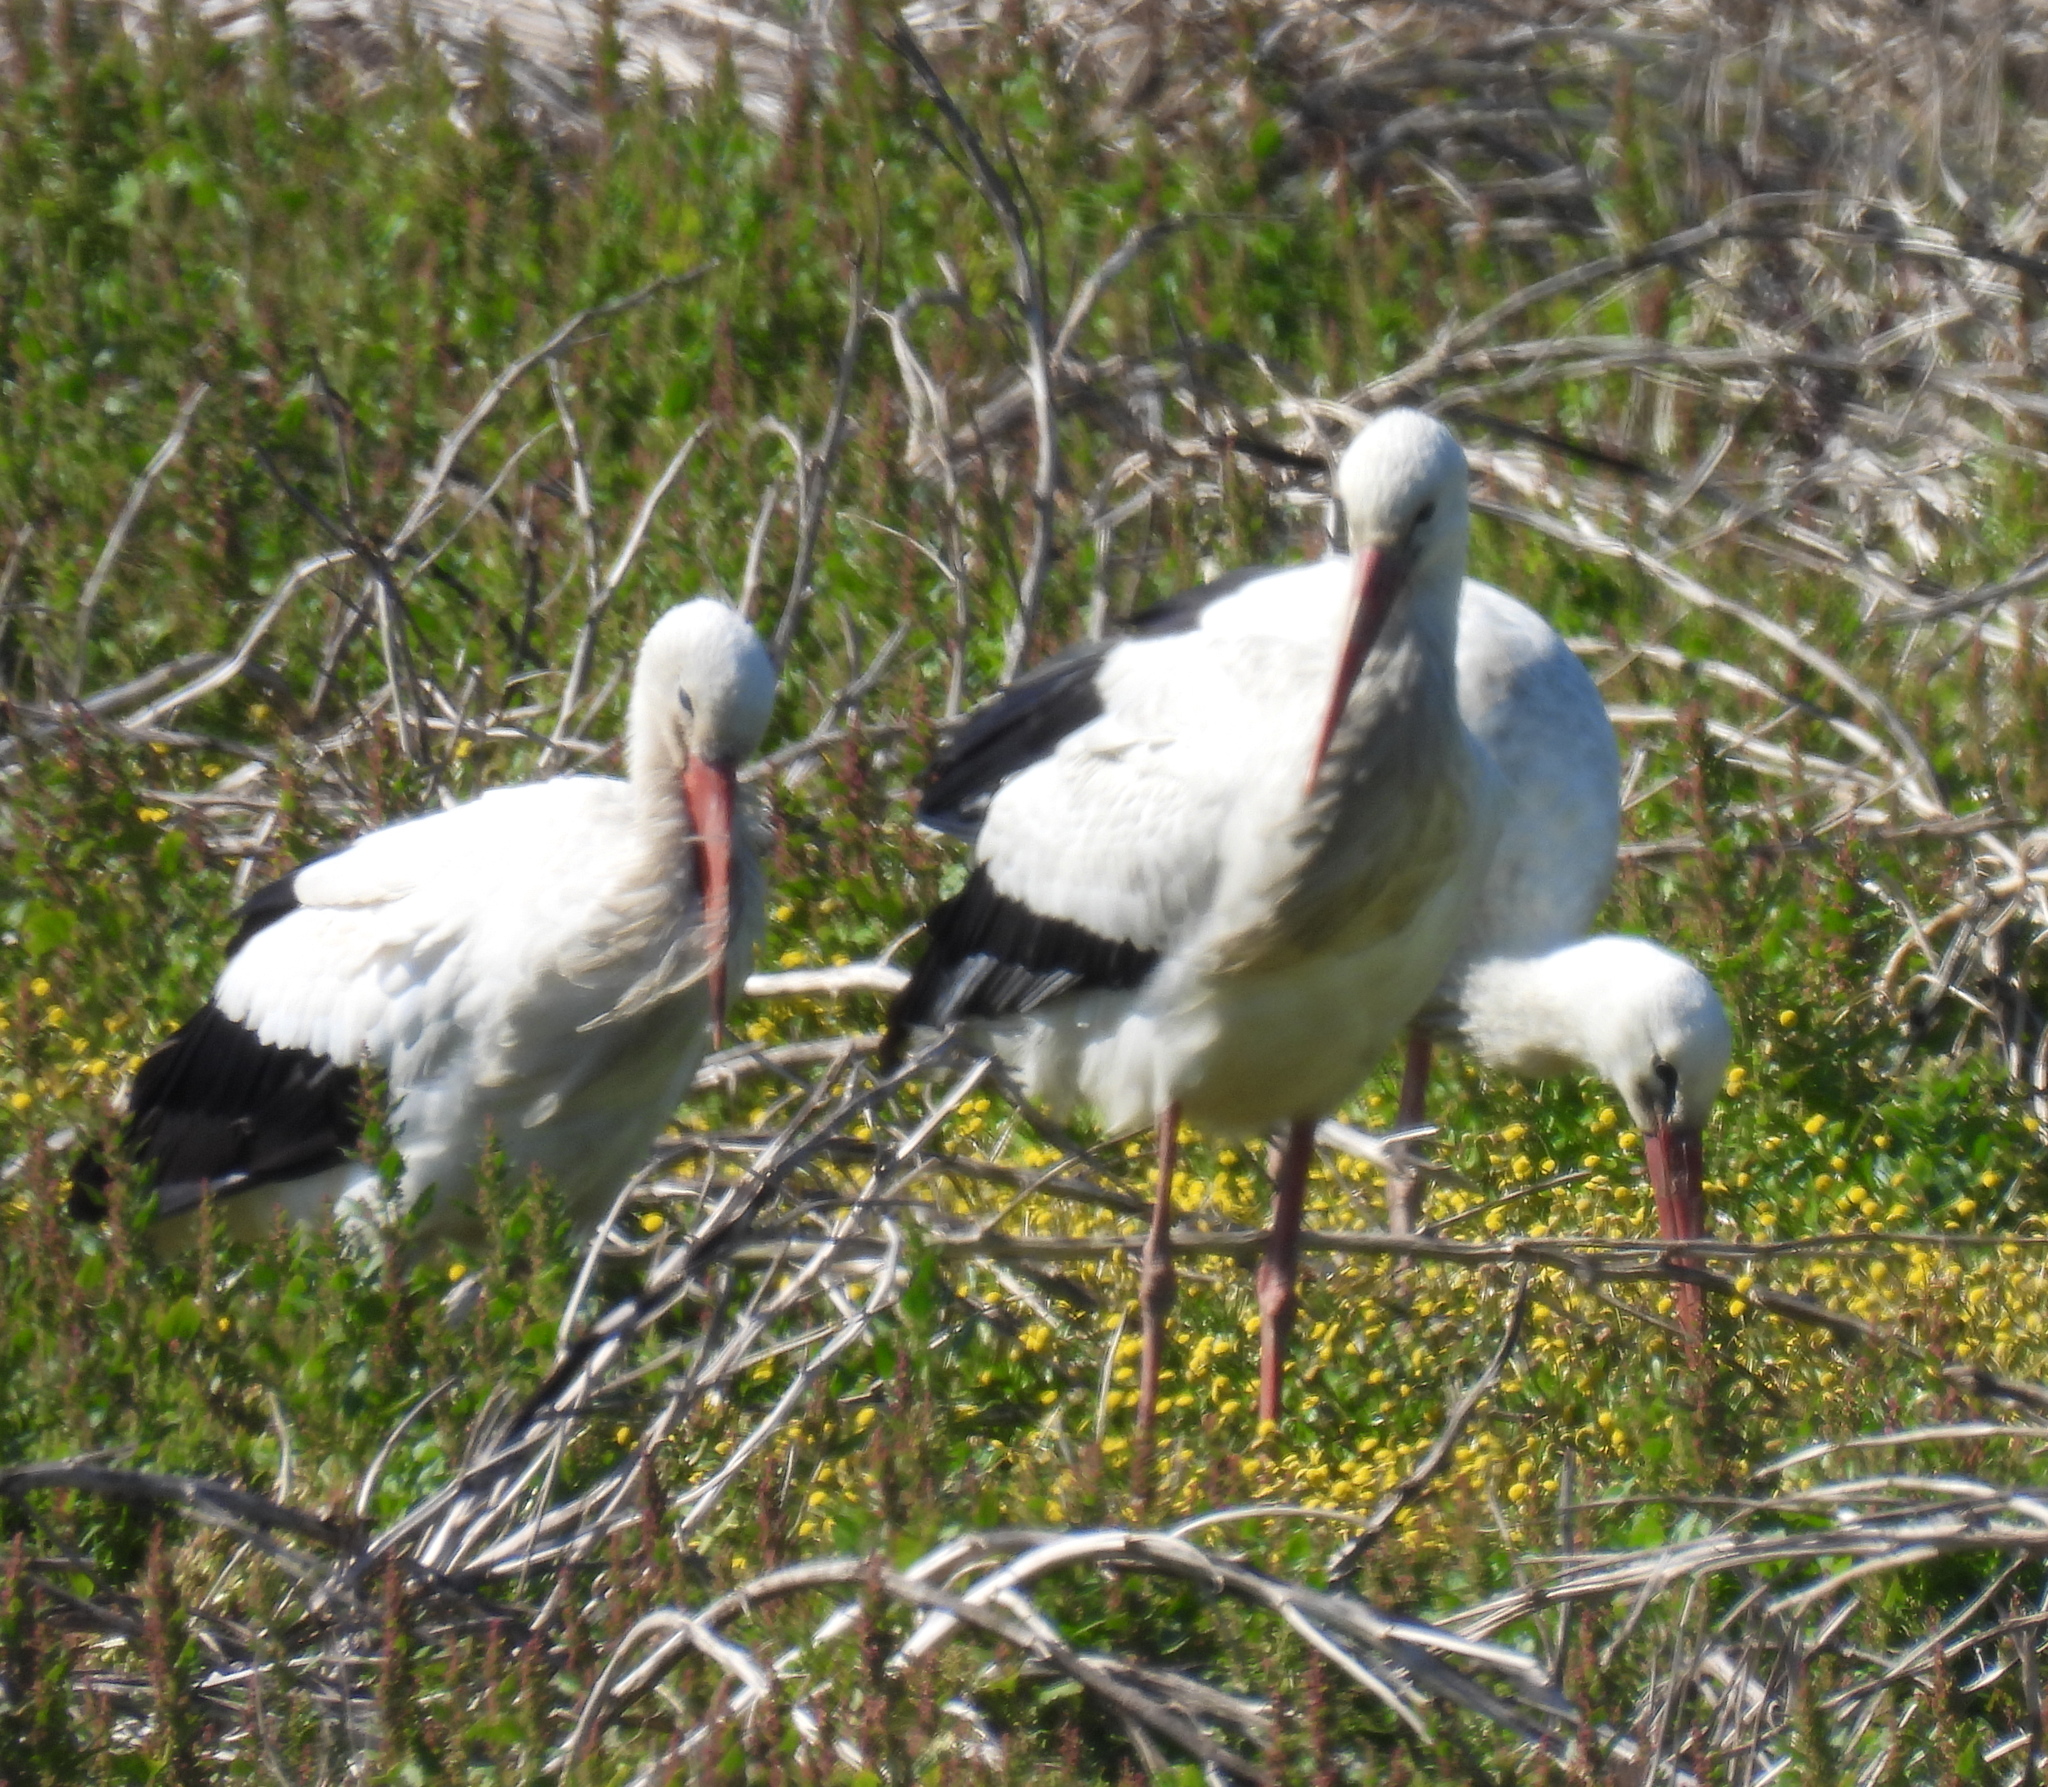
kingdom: Animalia
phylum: Chordata
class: Aves
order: Ciconiiformes
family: Ciconiidae
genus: Ciconia
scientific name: Ciconia ciconia
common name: White stork
